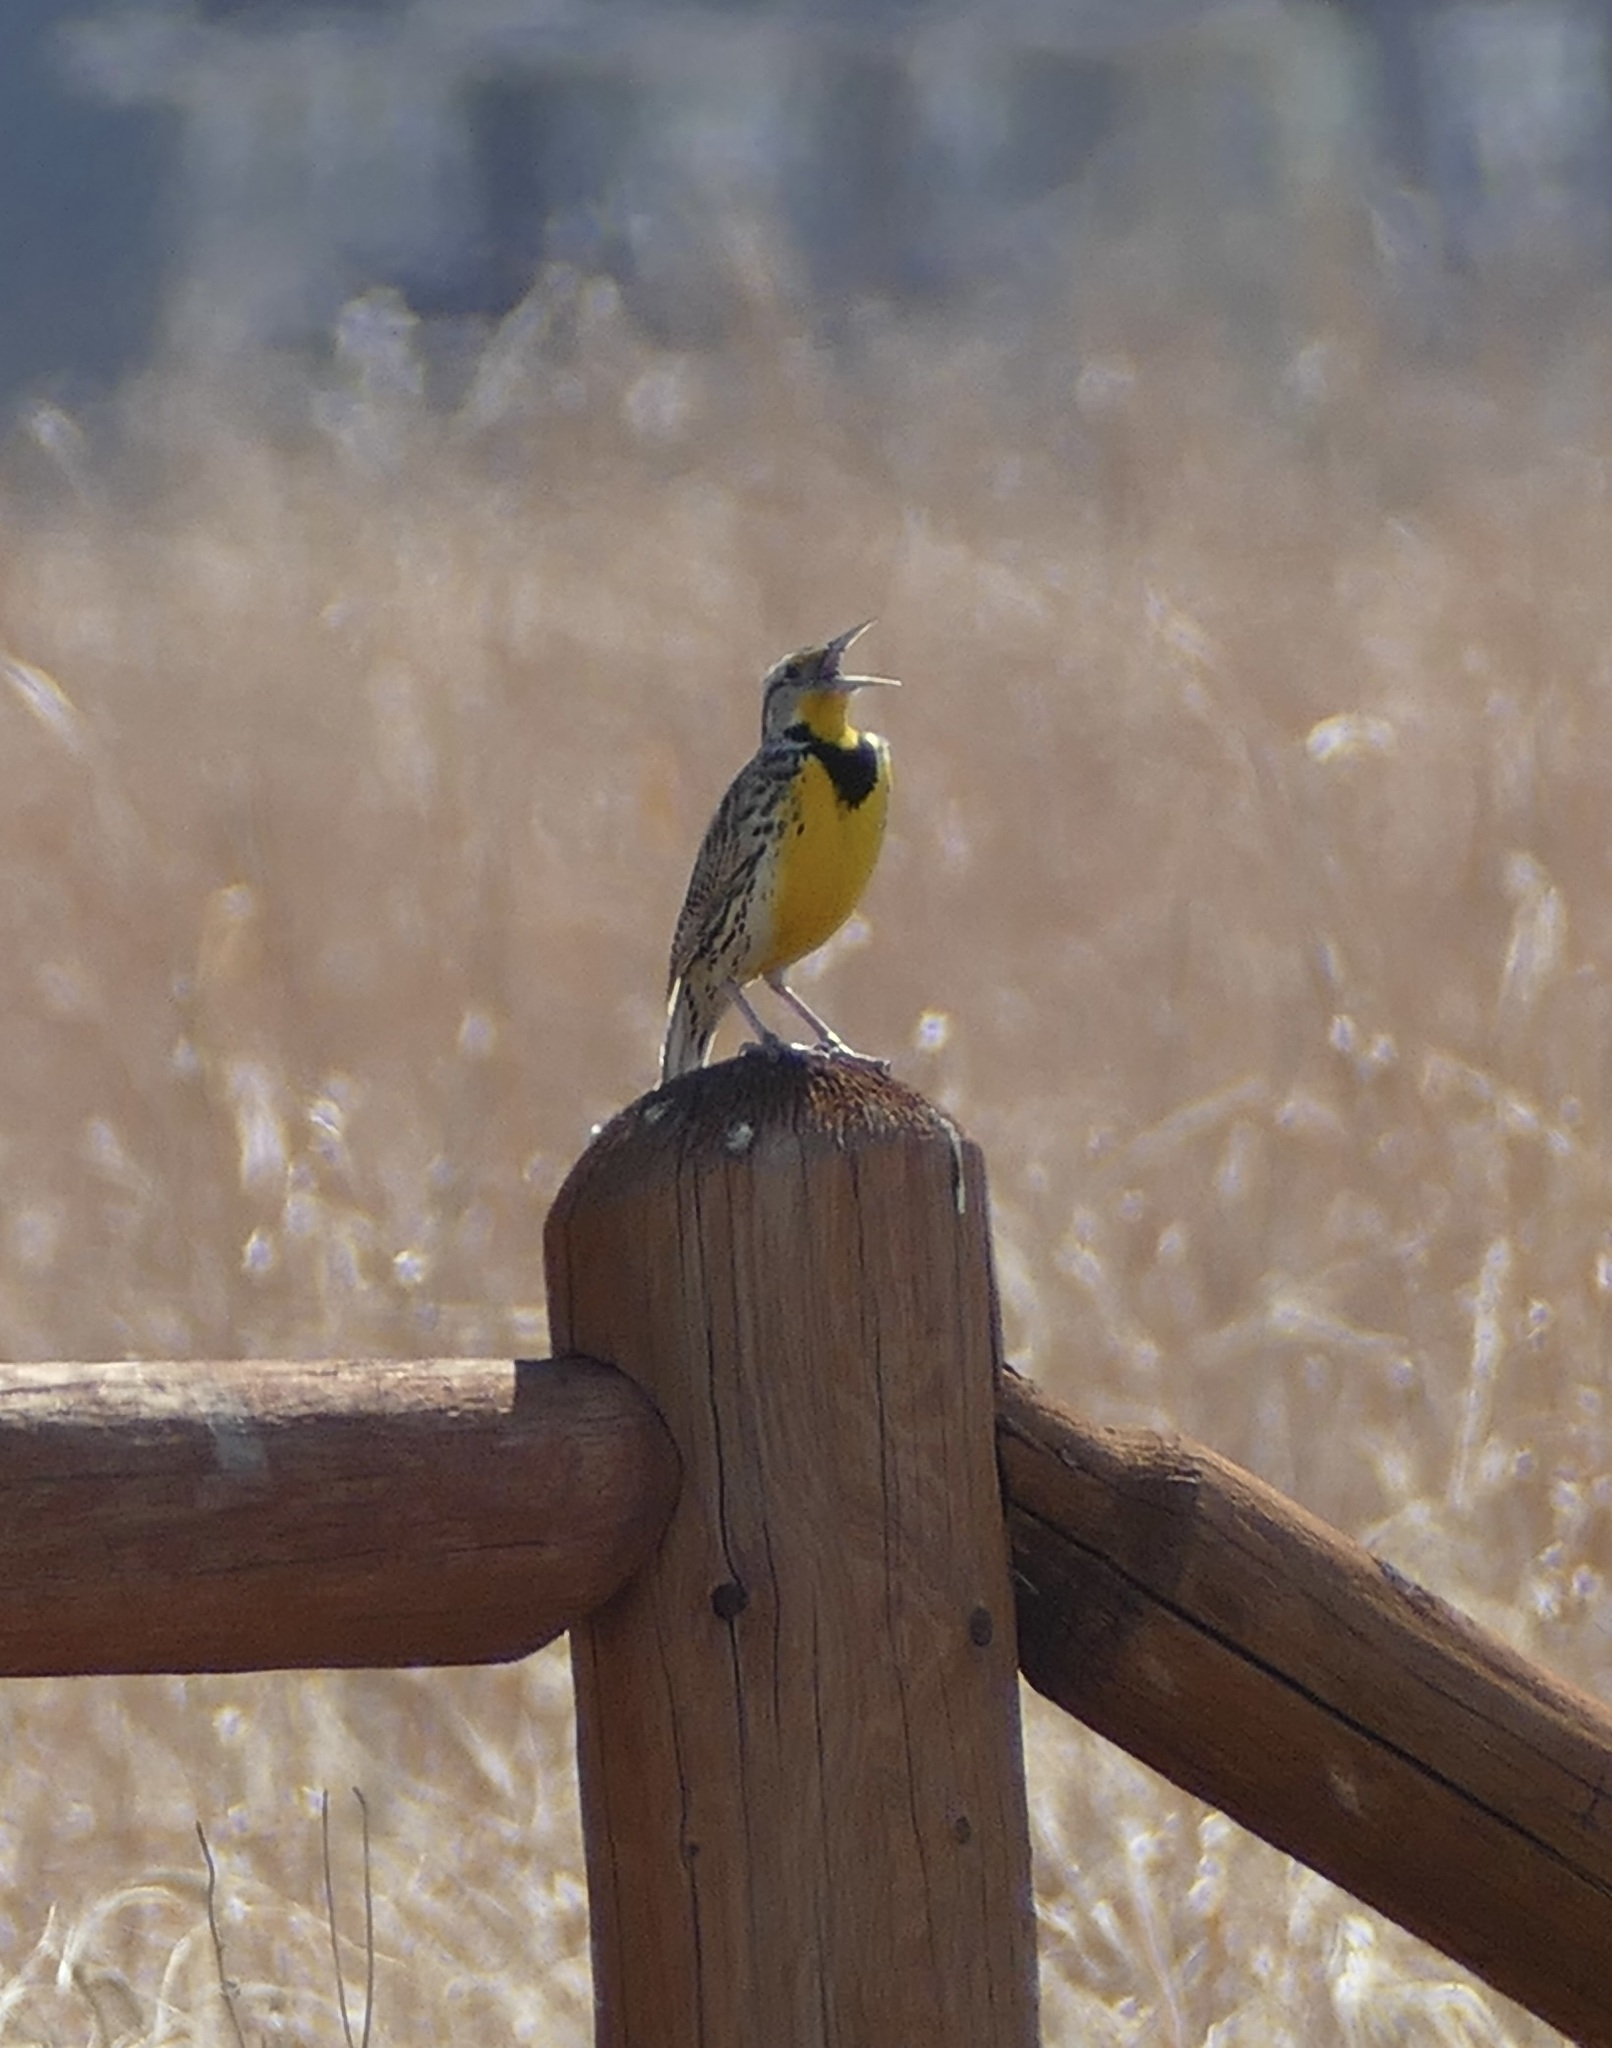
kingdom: Animalia
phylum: Chordata
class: Aves
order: Passeriformes
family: Icteridae
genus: Sturnella
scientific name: Sturnella neglecta
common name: Western meadowlark
